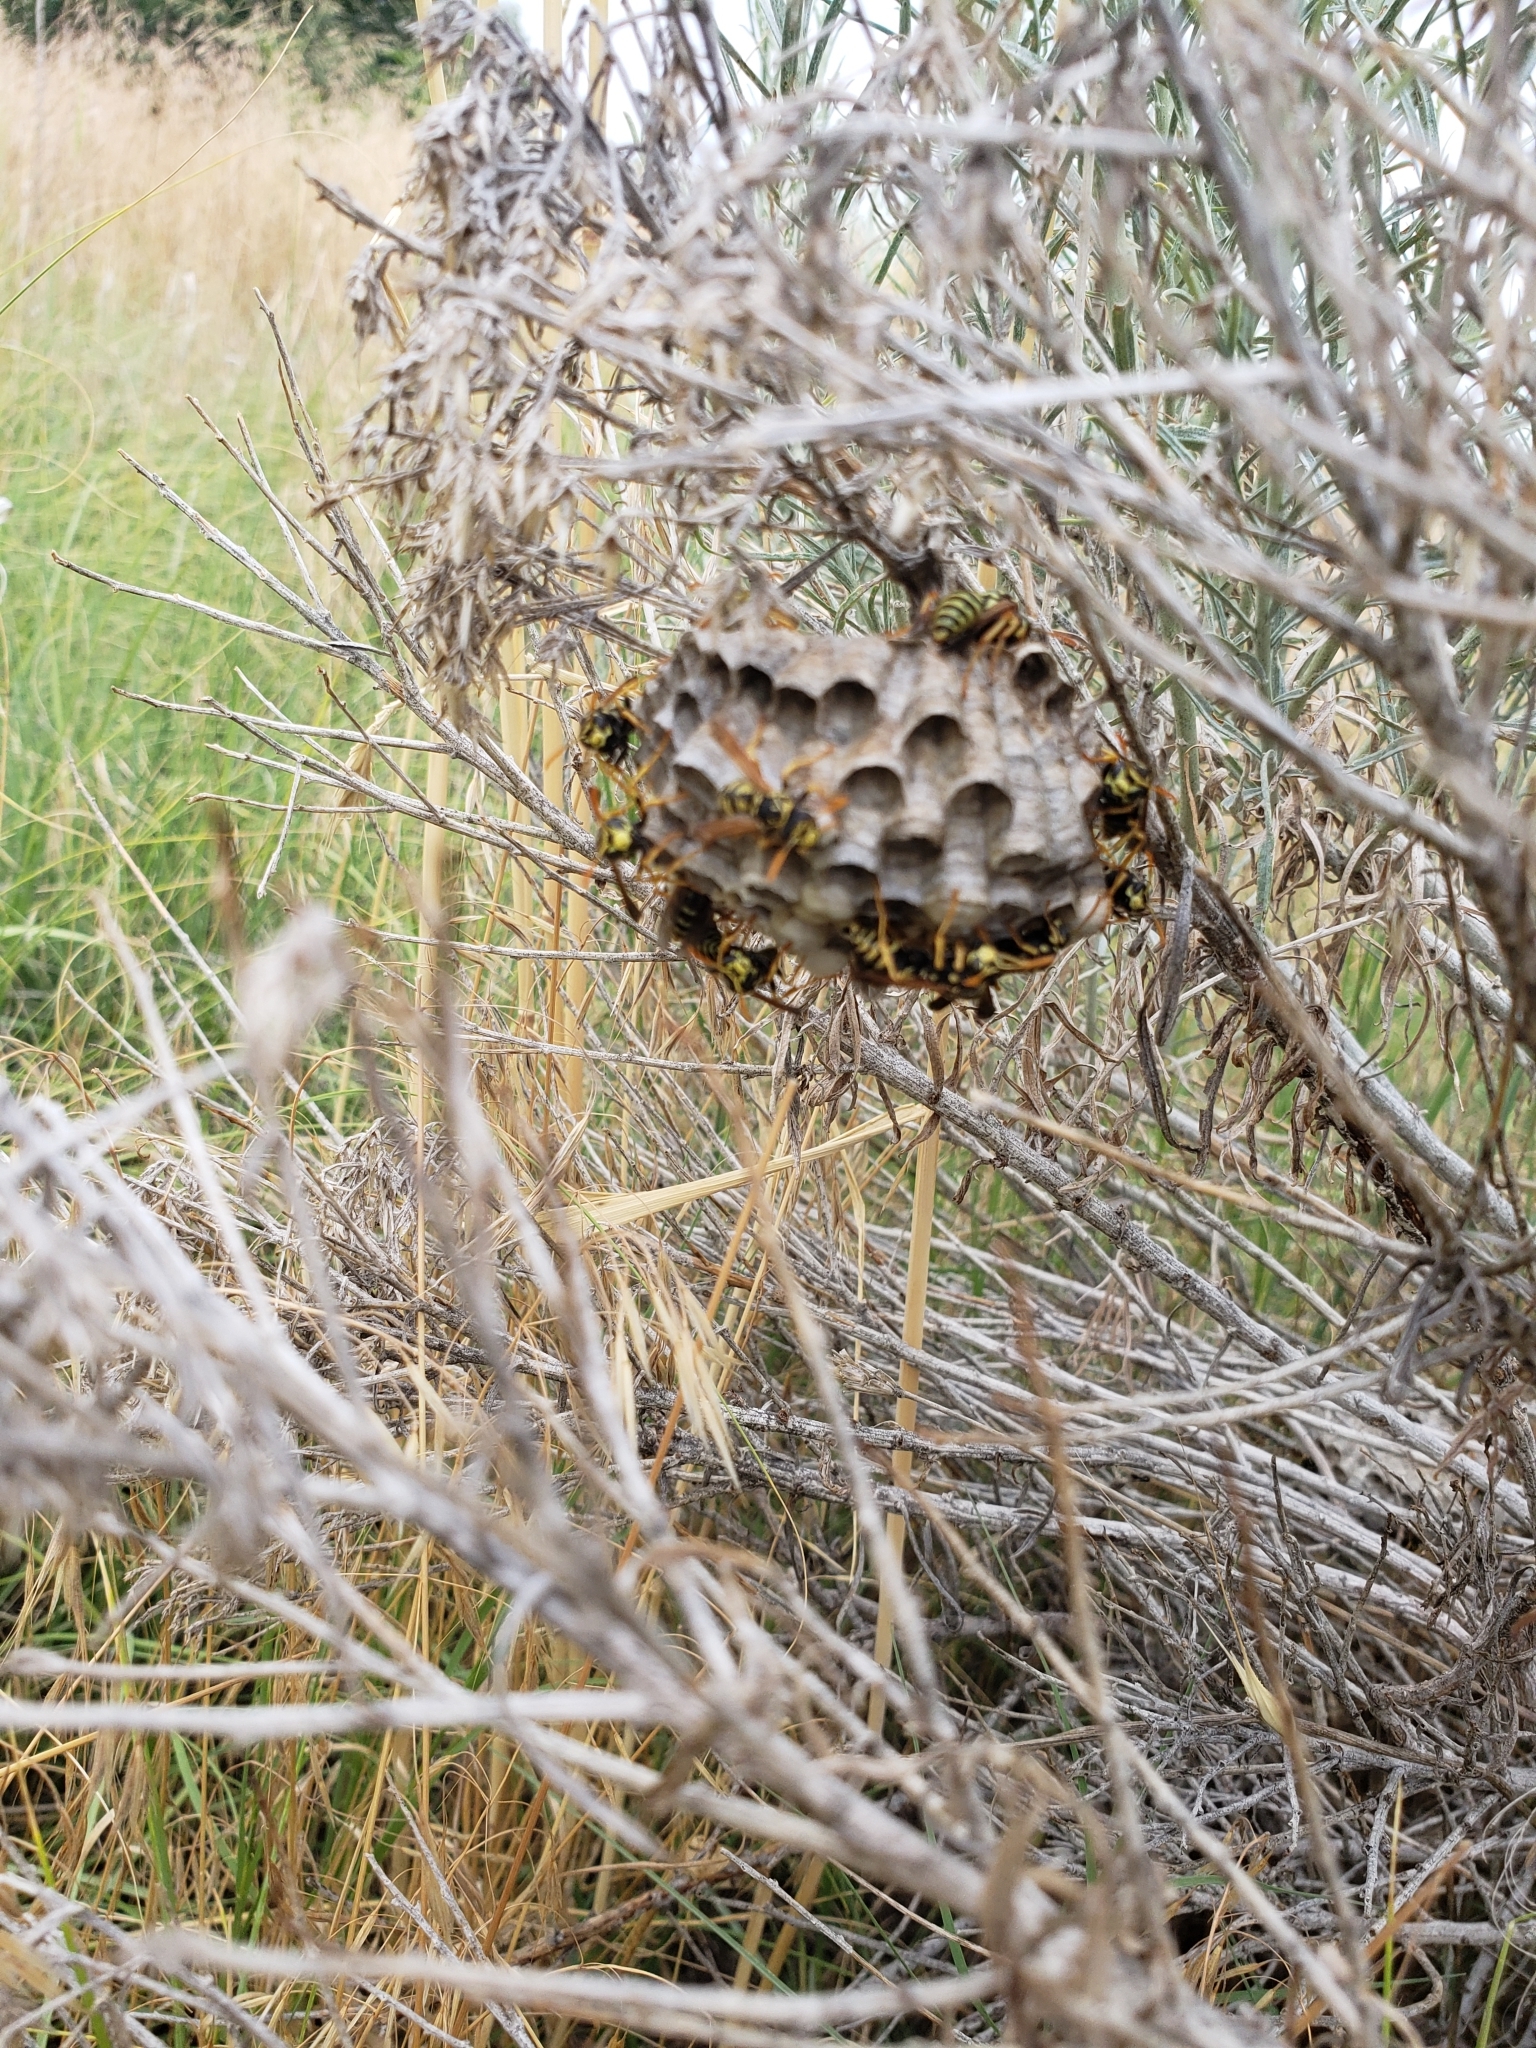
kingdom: Animalia
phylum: Arthropoda
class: Insecta
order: Hymenoptera
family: Eumenidae
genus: Polistes
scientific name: Polistes dominula
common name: Paper wasp
